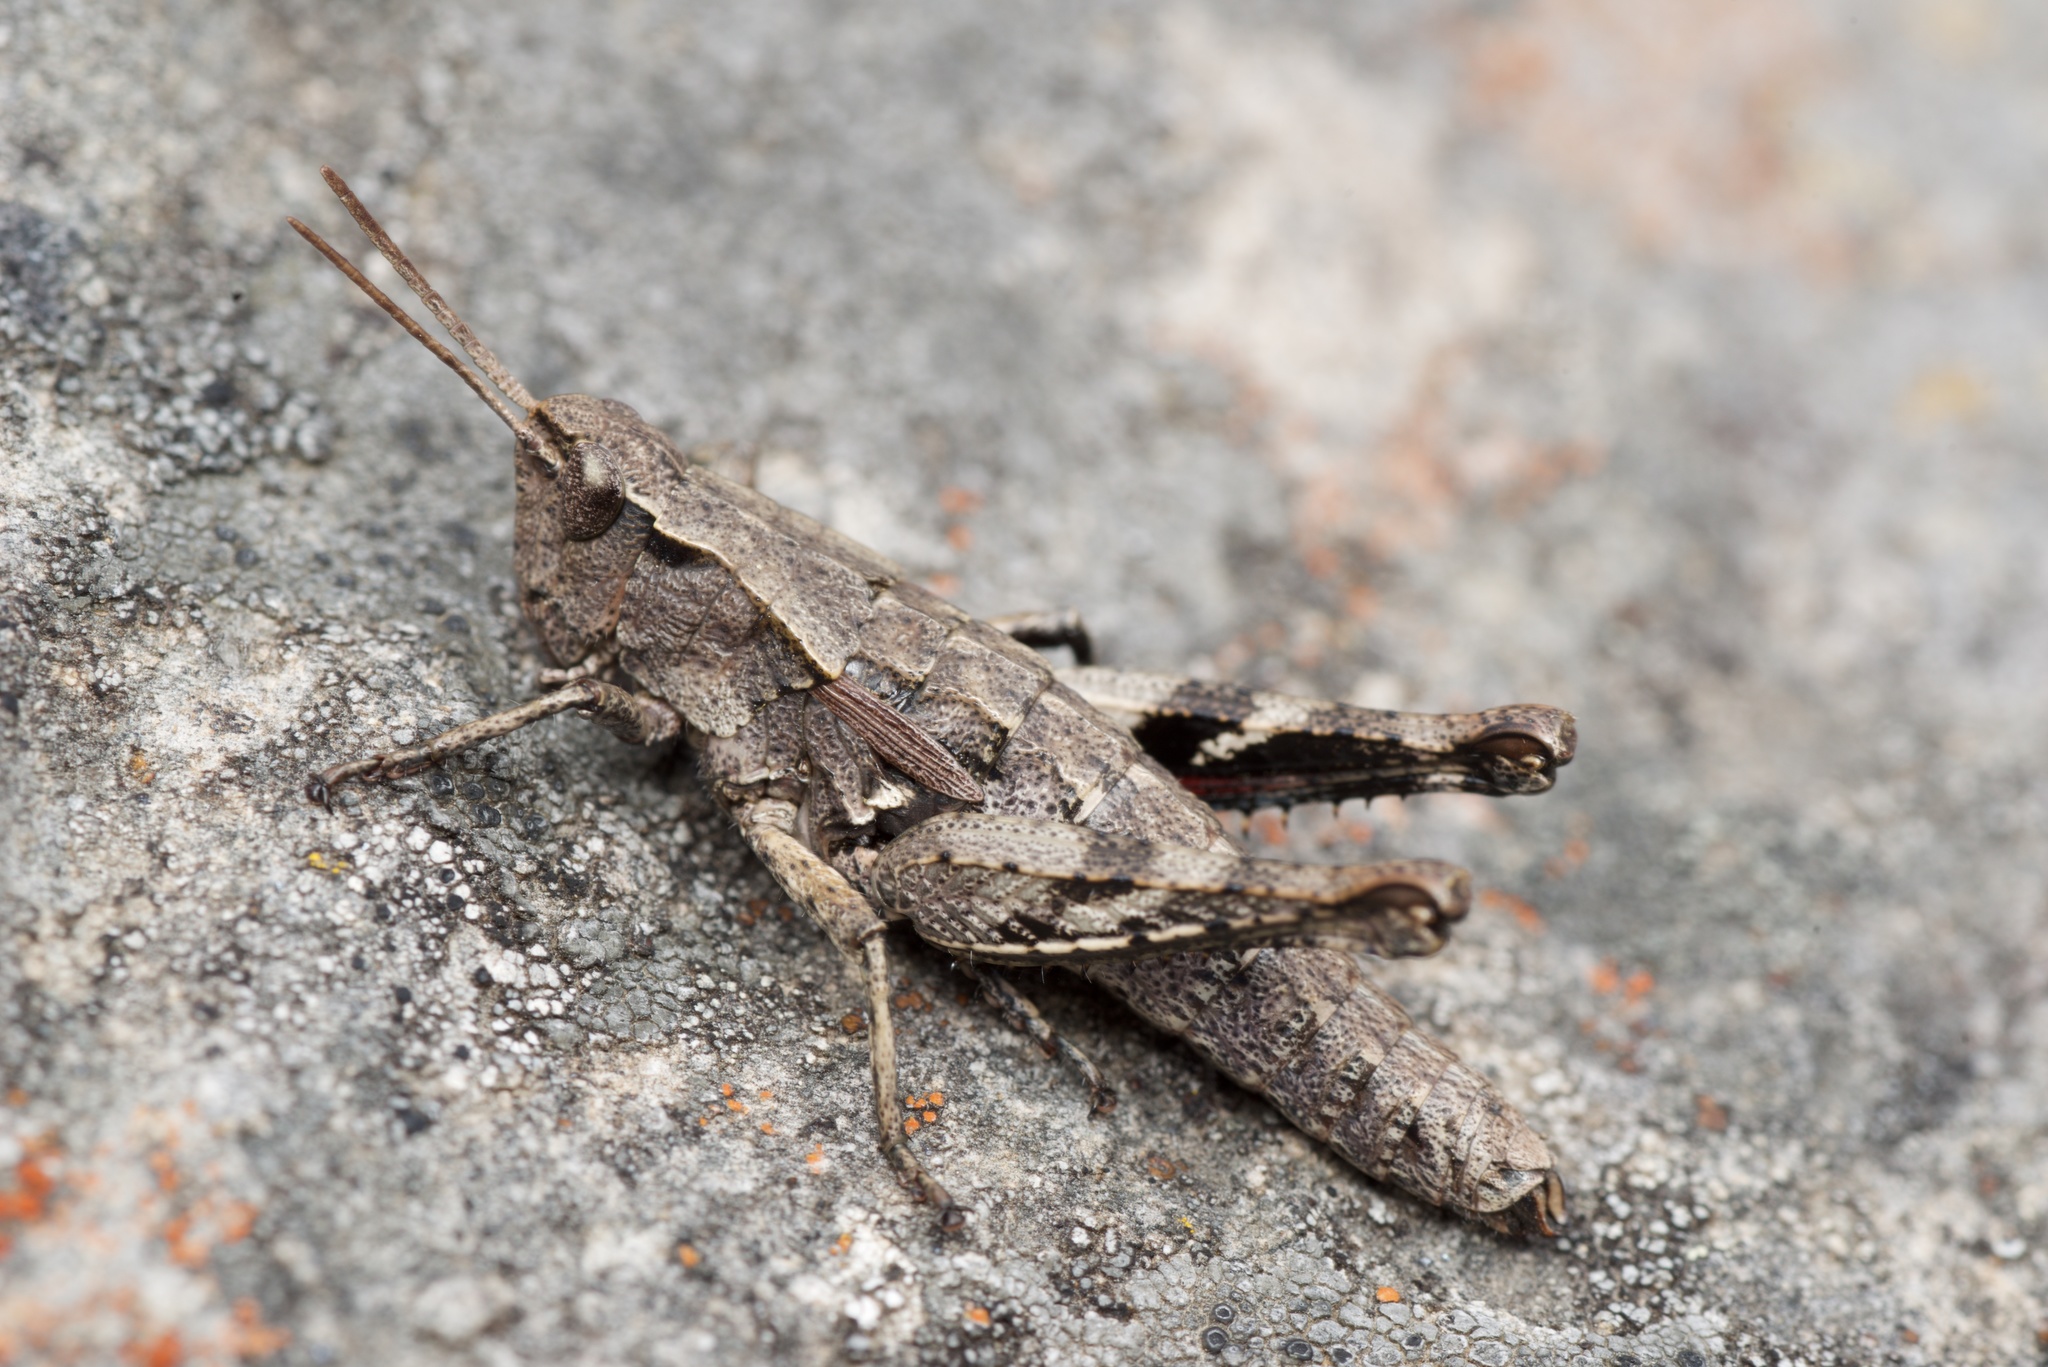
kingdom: Animalia
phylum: Arthropoda
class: Insecta
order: Orthoptera
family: Acrididae
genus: Sigaus
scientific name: Sigaus campestris
